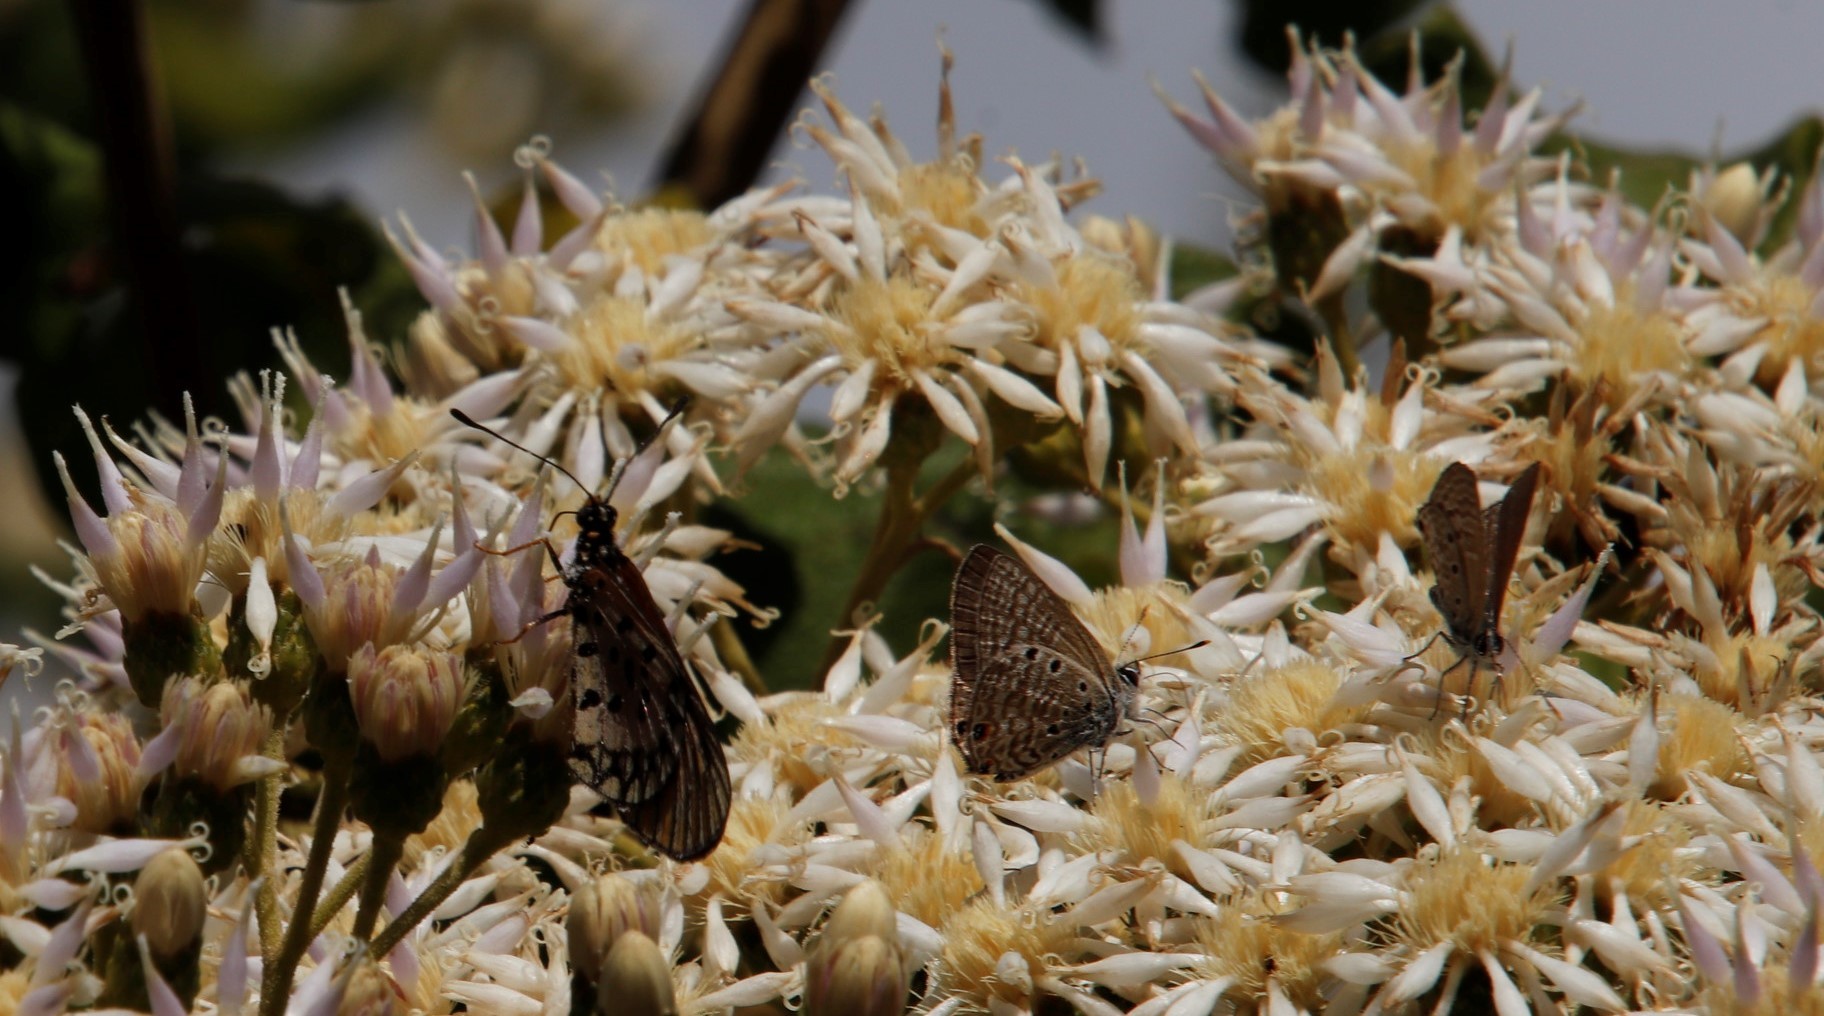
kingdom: Animalia
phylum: Arthropoda
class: Insecta
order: Lepidoptera
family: Lycaenidae
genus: Anthene
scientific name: Anthene amarah
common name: Black-striped hairtail
